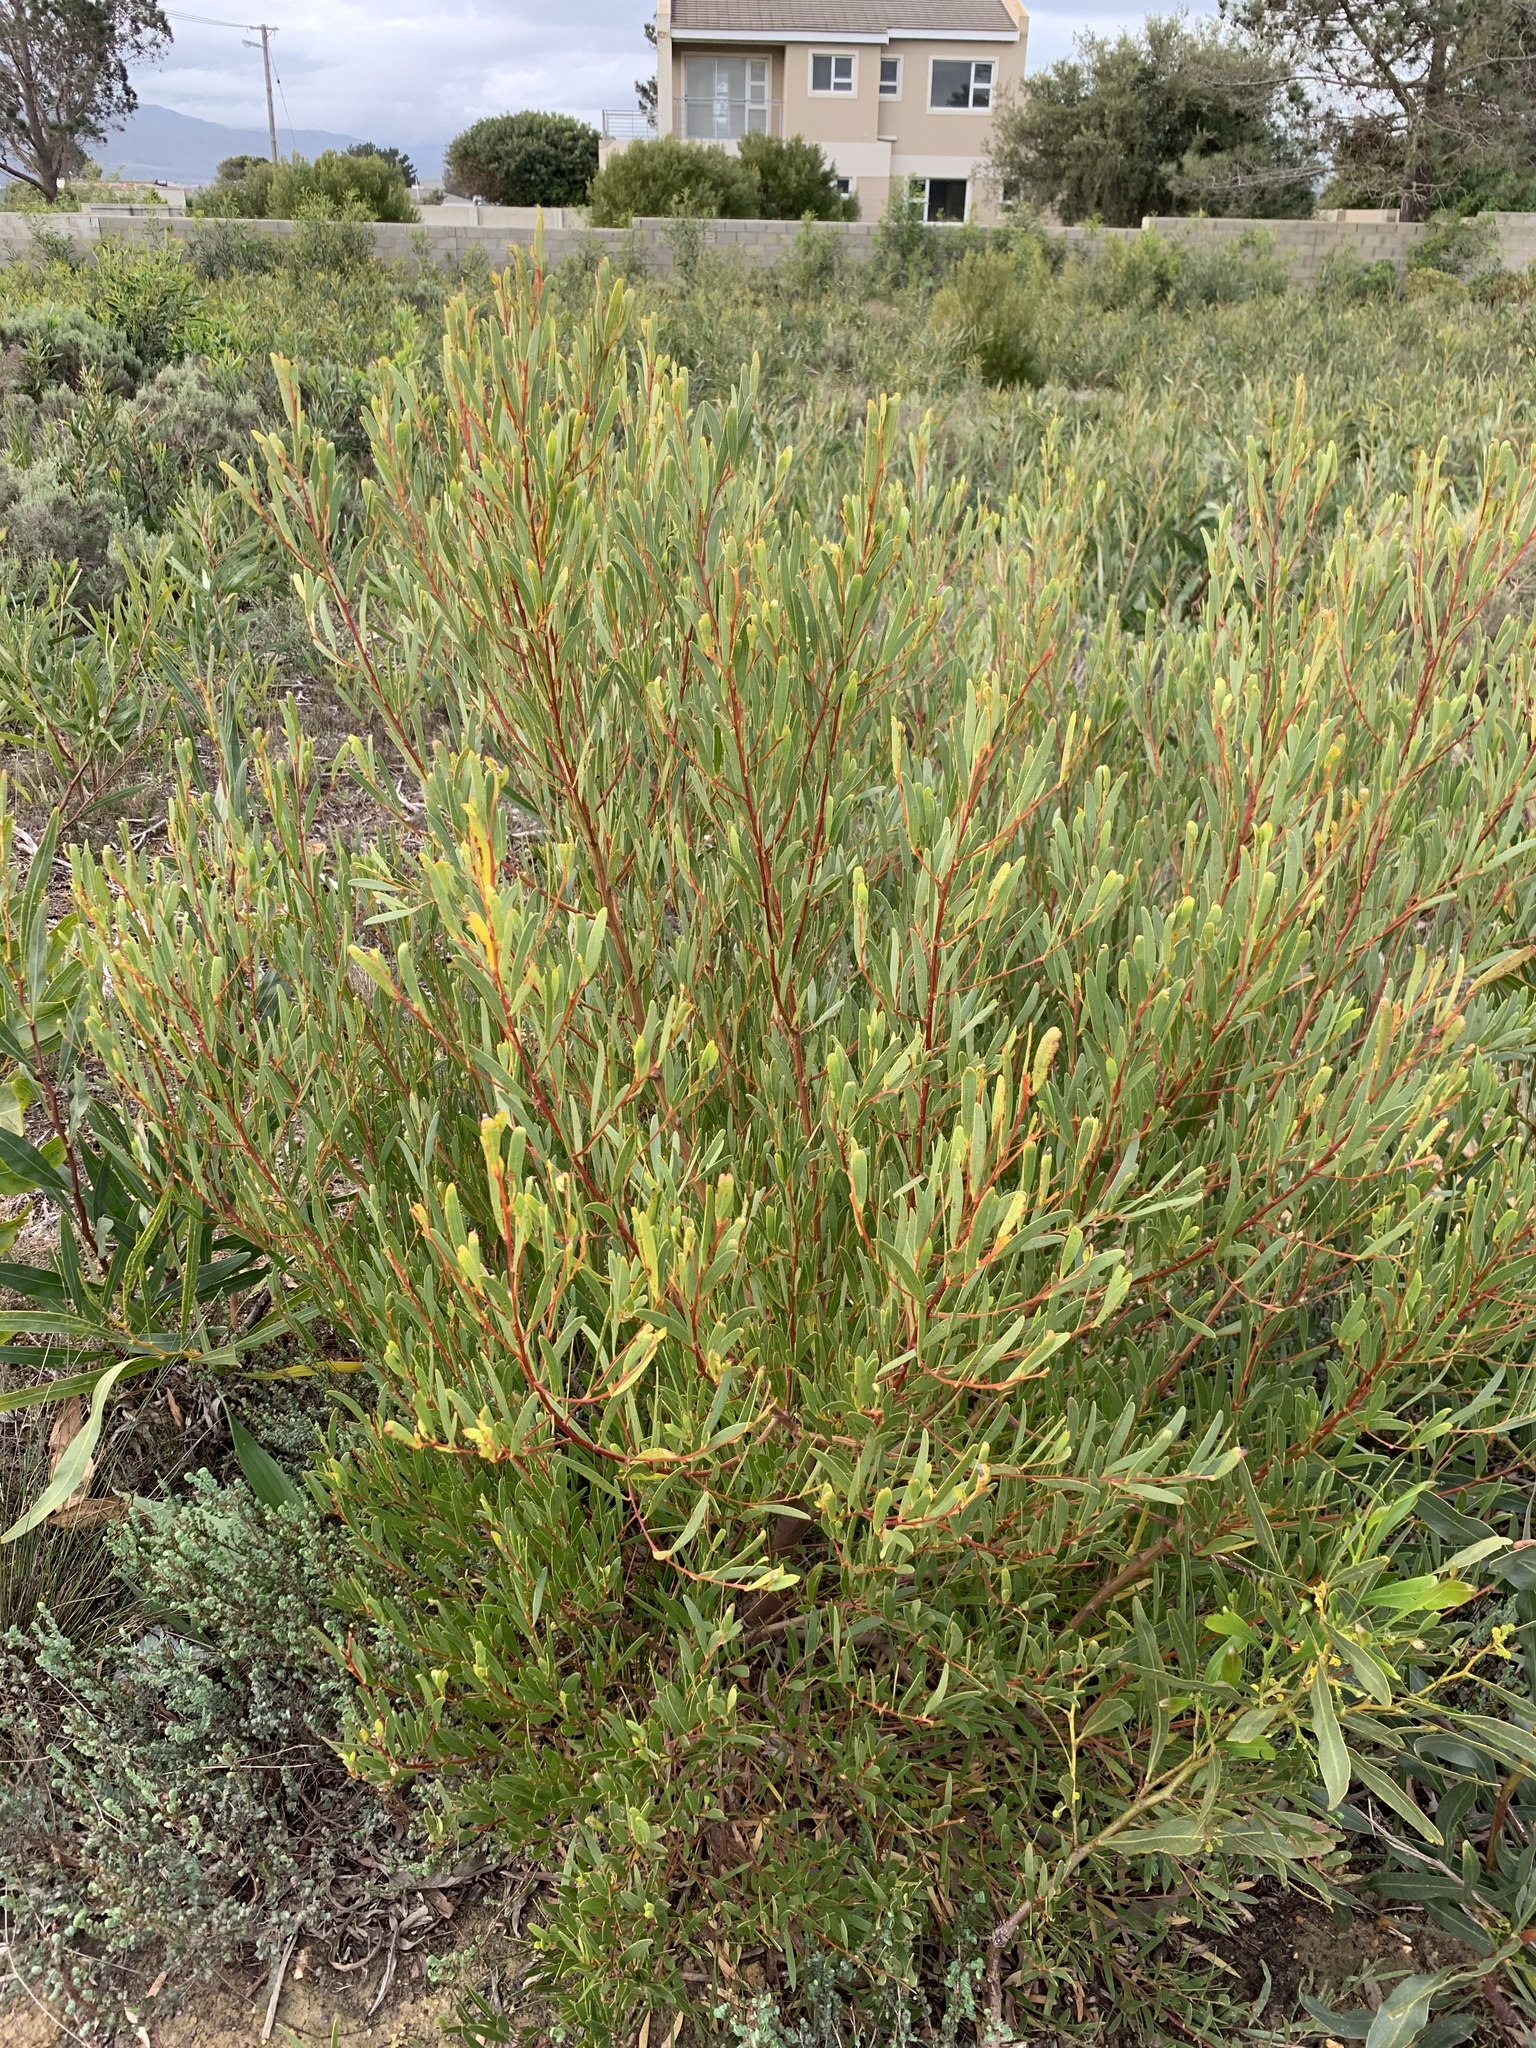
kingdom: Plantae
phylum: Tracheophyta
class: Magnoliopsida
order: Fabales
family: Fabaceae
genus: Acacia
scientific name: Acacia cyclops
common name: Coastal wattle
